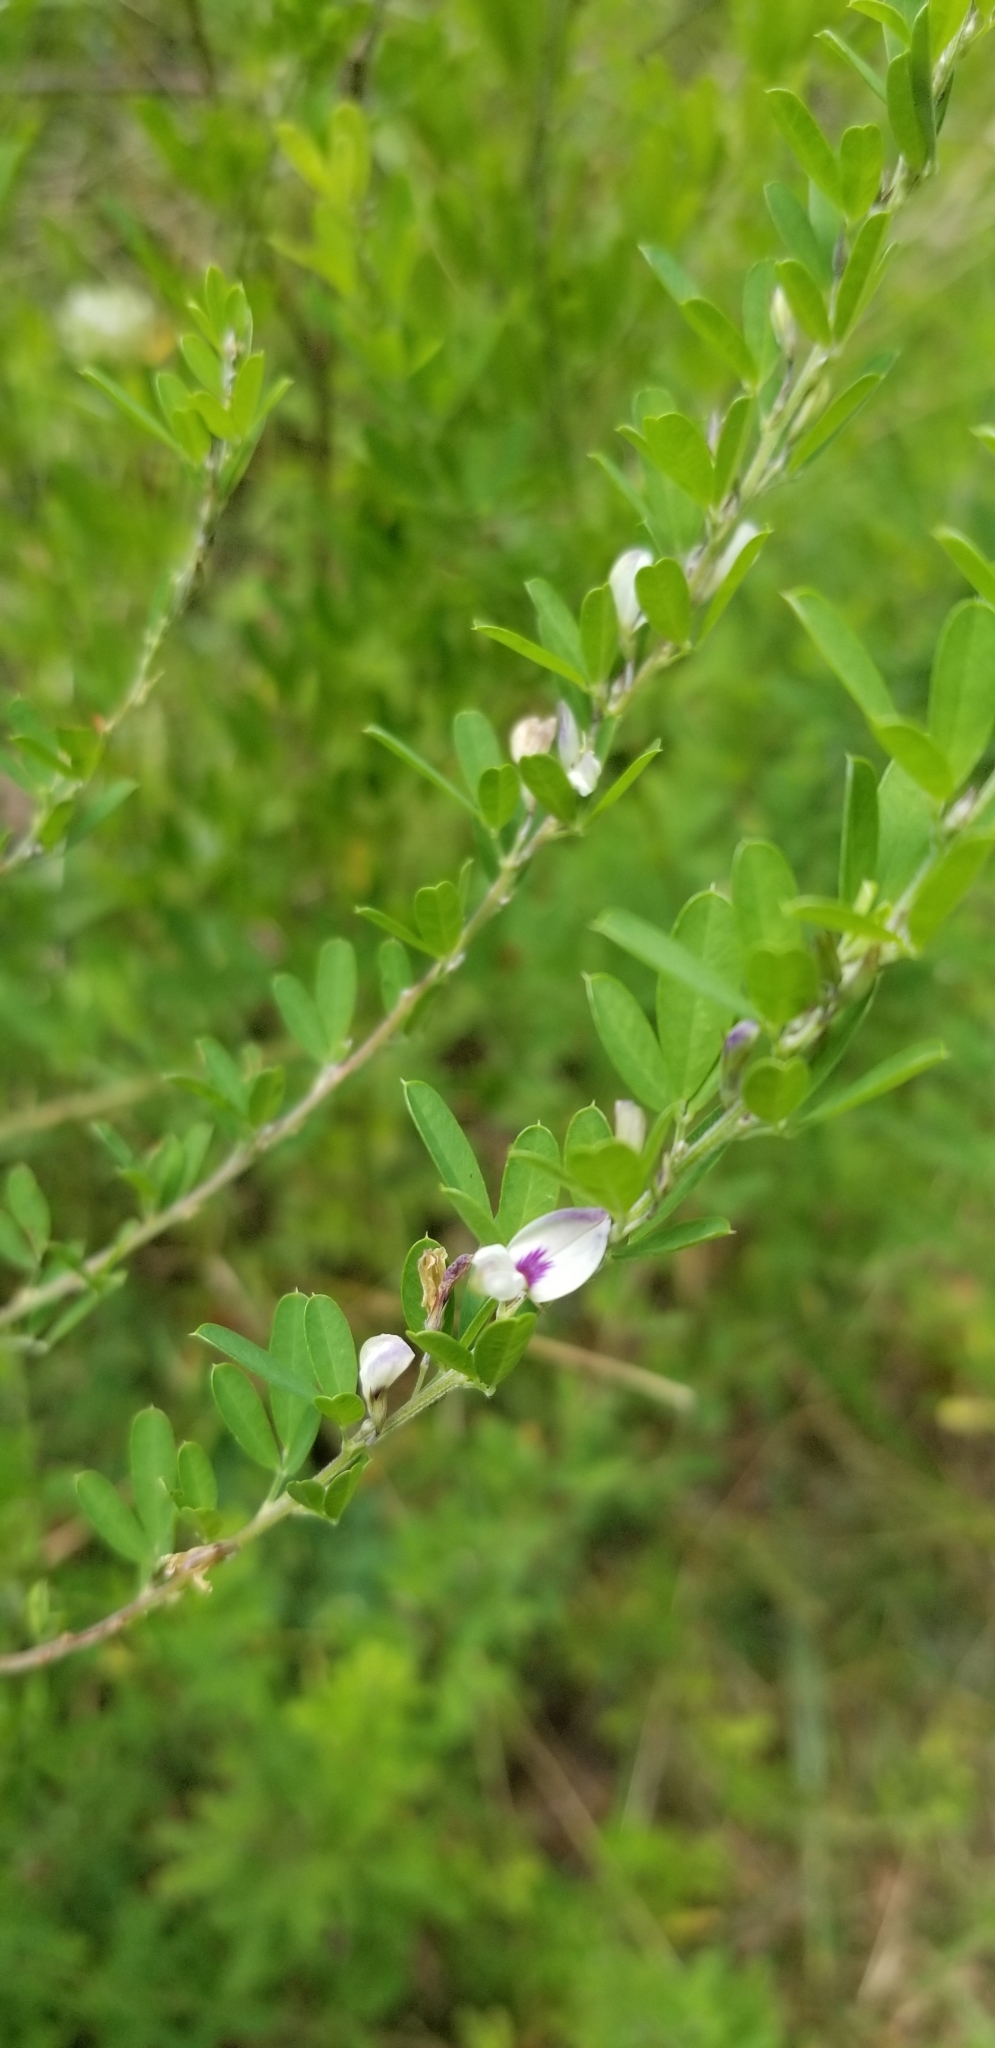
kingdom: Plantae
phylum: Tracheophyta
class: Magnoliopsida
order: Fabales
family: Fabaceae
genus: Lespedeza
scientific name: Lespedeza cuneata
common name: Chinese bush-clover
